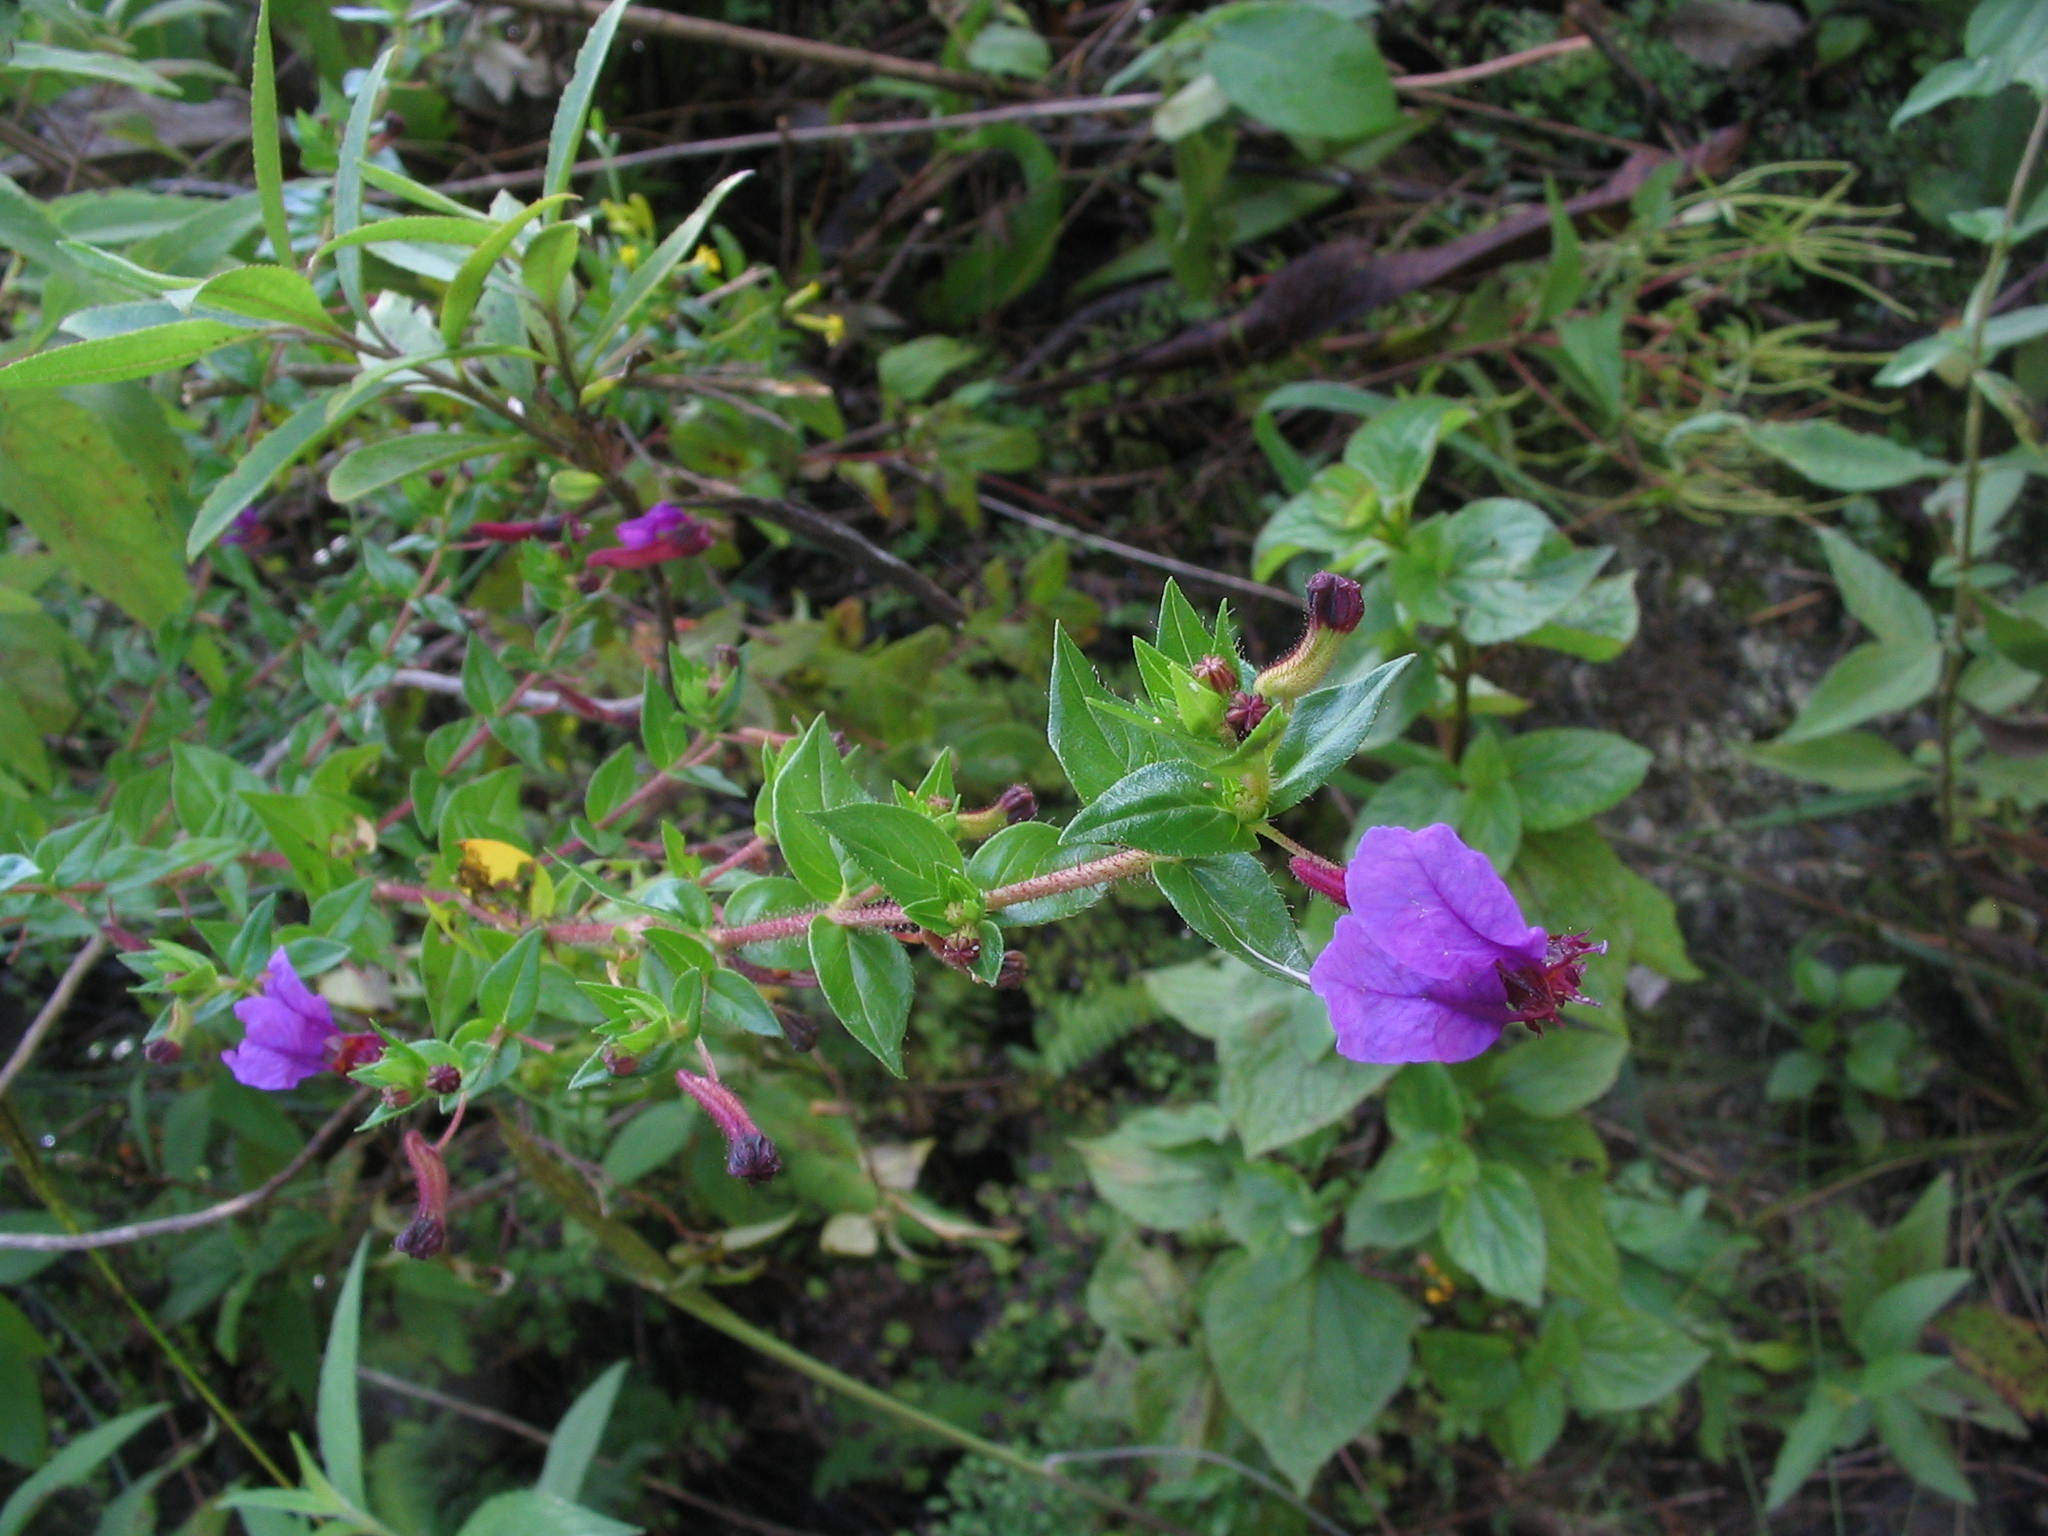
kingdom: Plantae
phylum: Tracheophyta
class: Magnoliopsida
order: Myrtales
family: Lythraceae
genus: Cuphea
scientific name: Cuphea cordata
